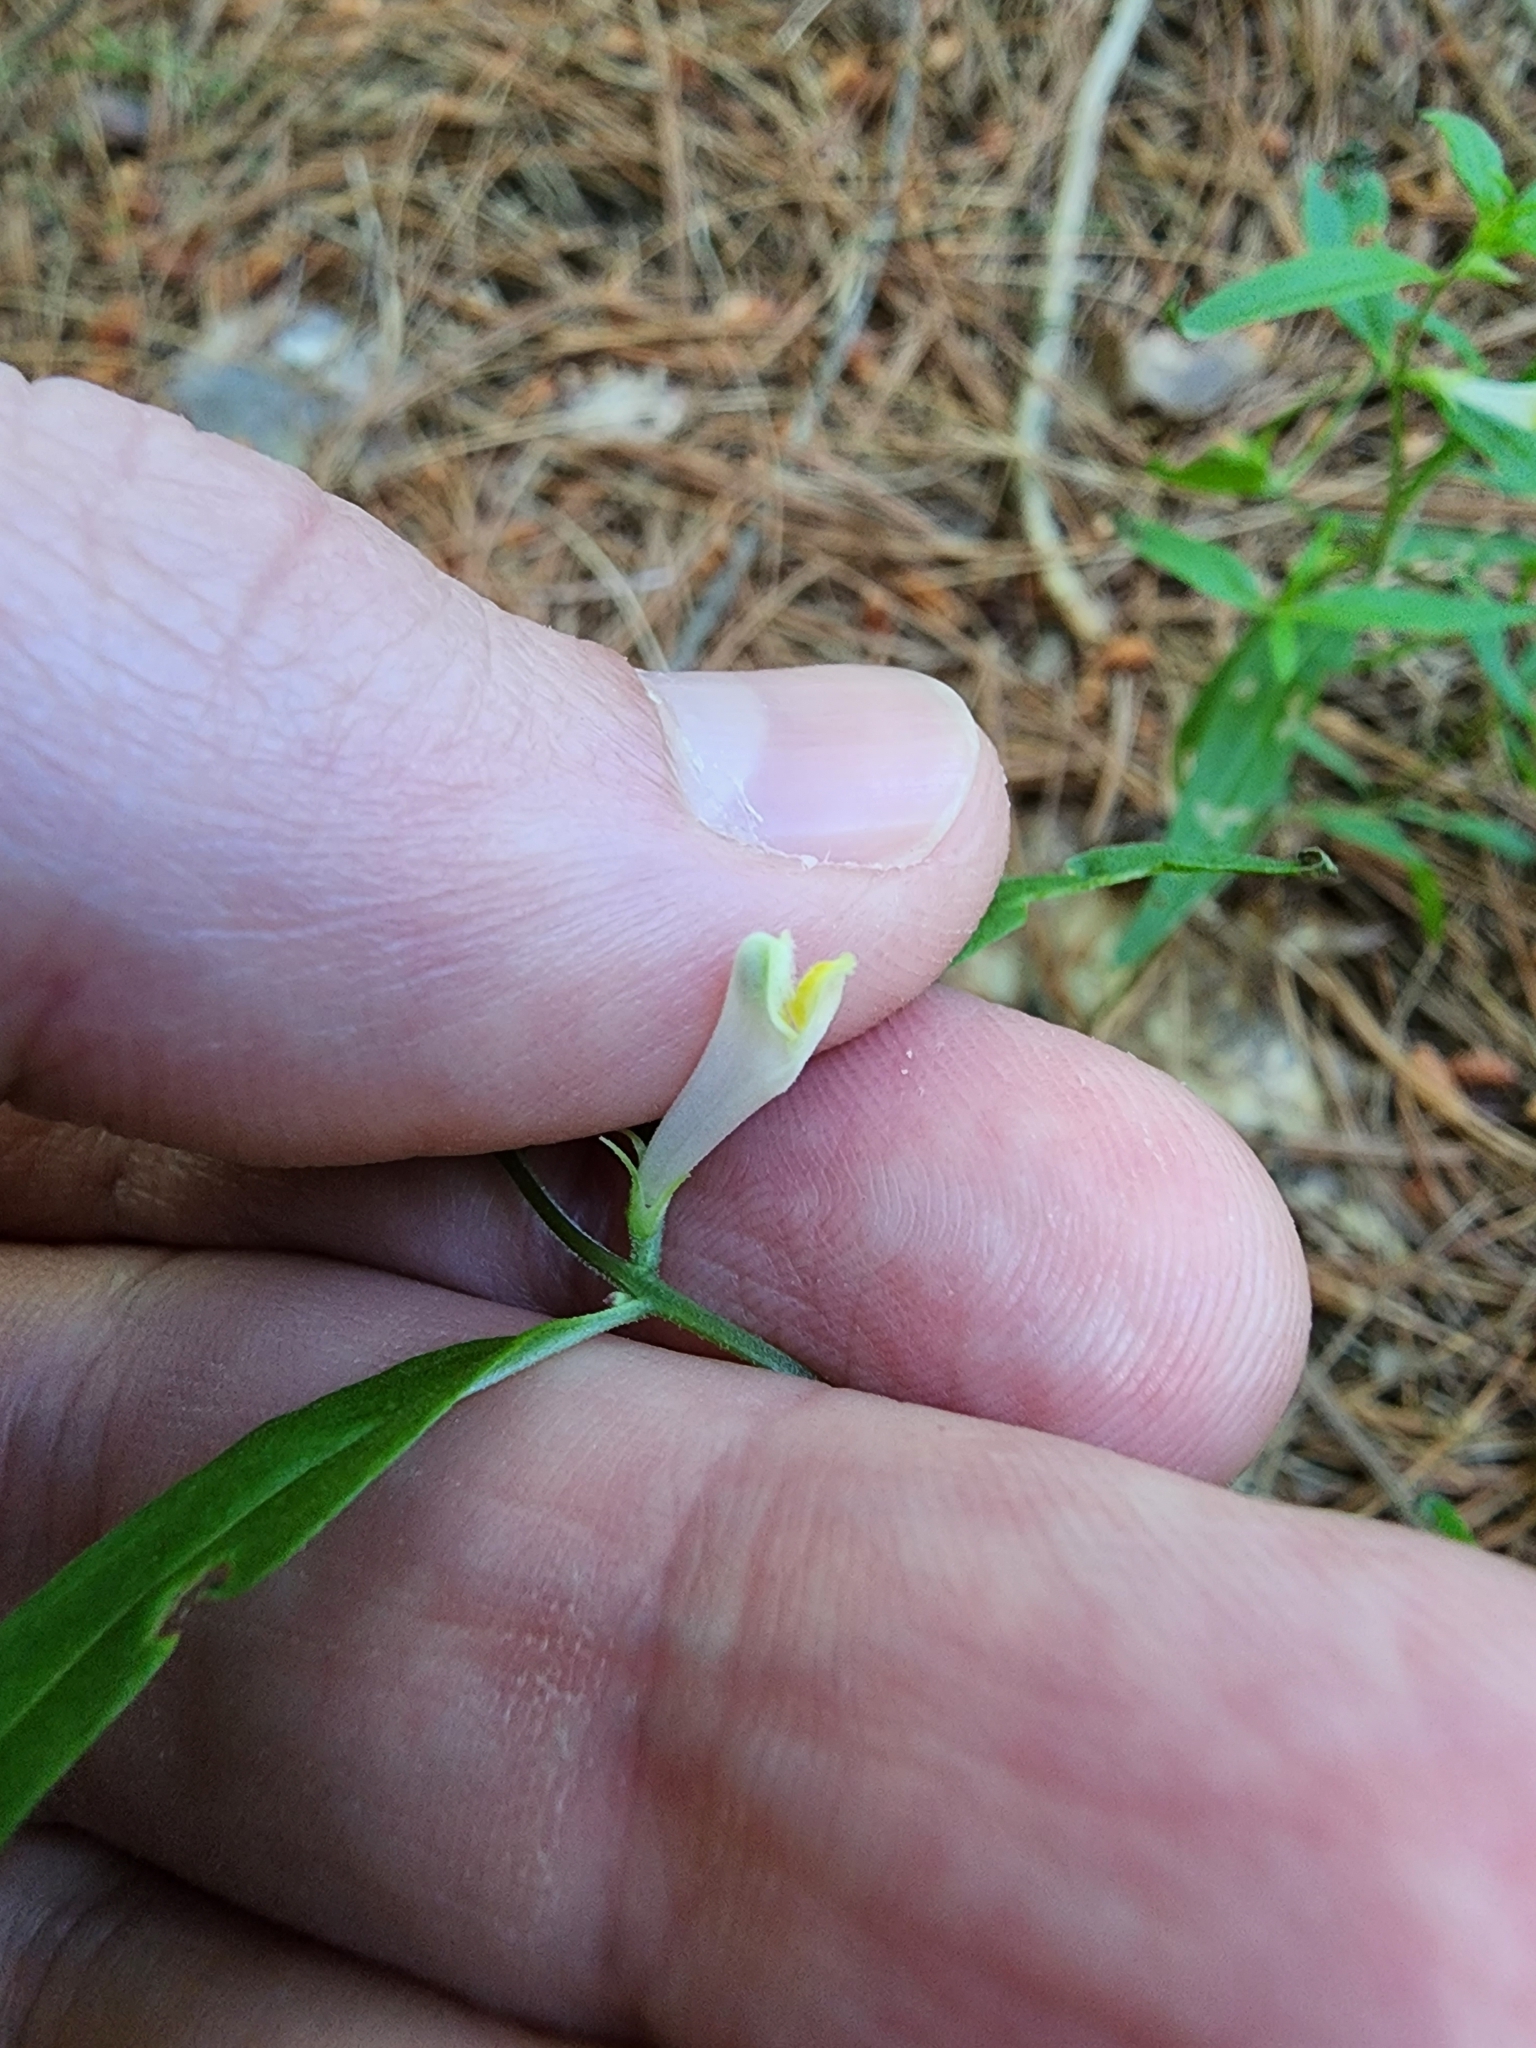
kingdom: Plantae
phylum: Tracheophyta
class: Magnoliopsida
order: Lamiales
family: Orobanchaceae
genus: Melampyrum
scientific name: Melampyrum lineare
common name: American cow-wheat
